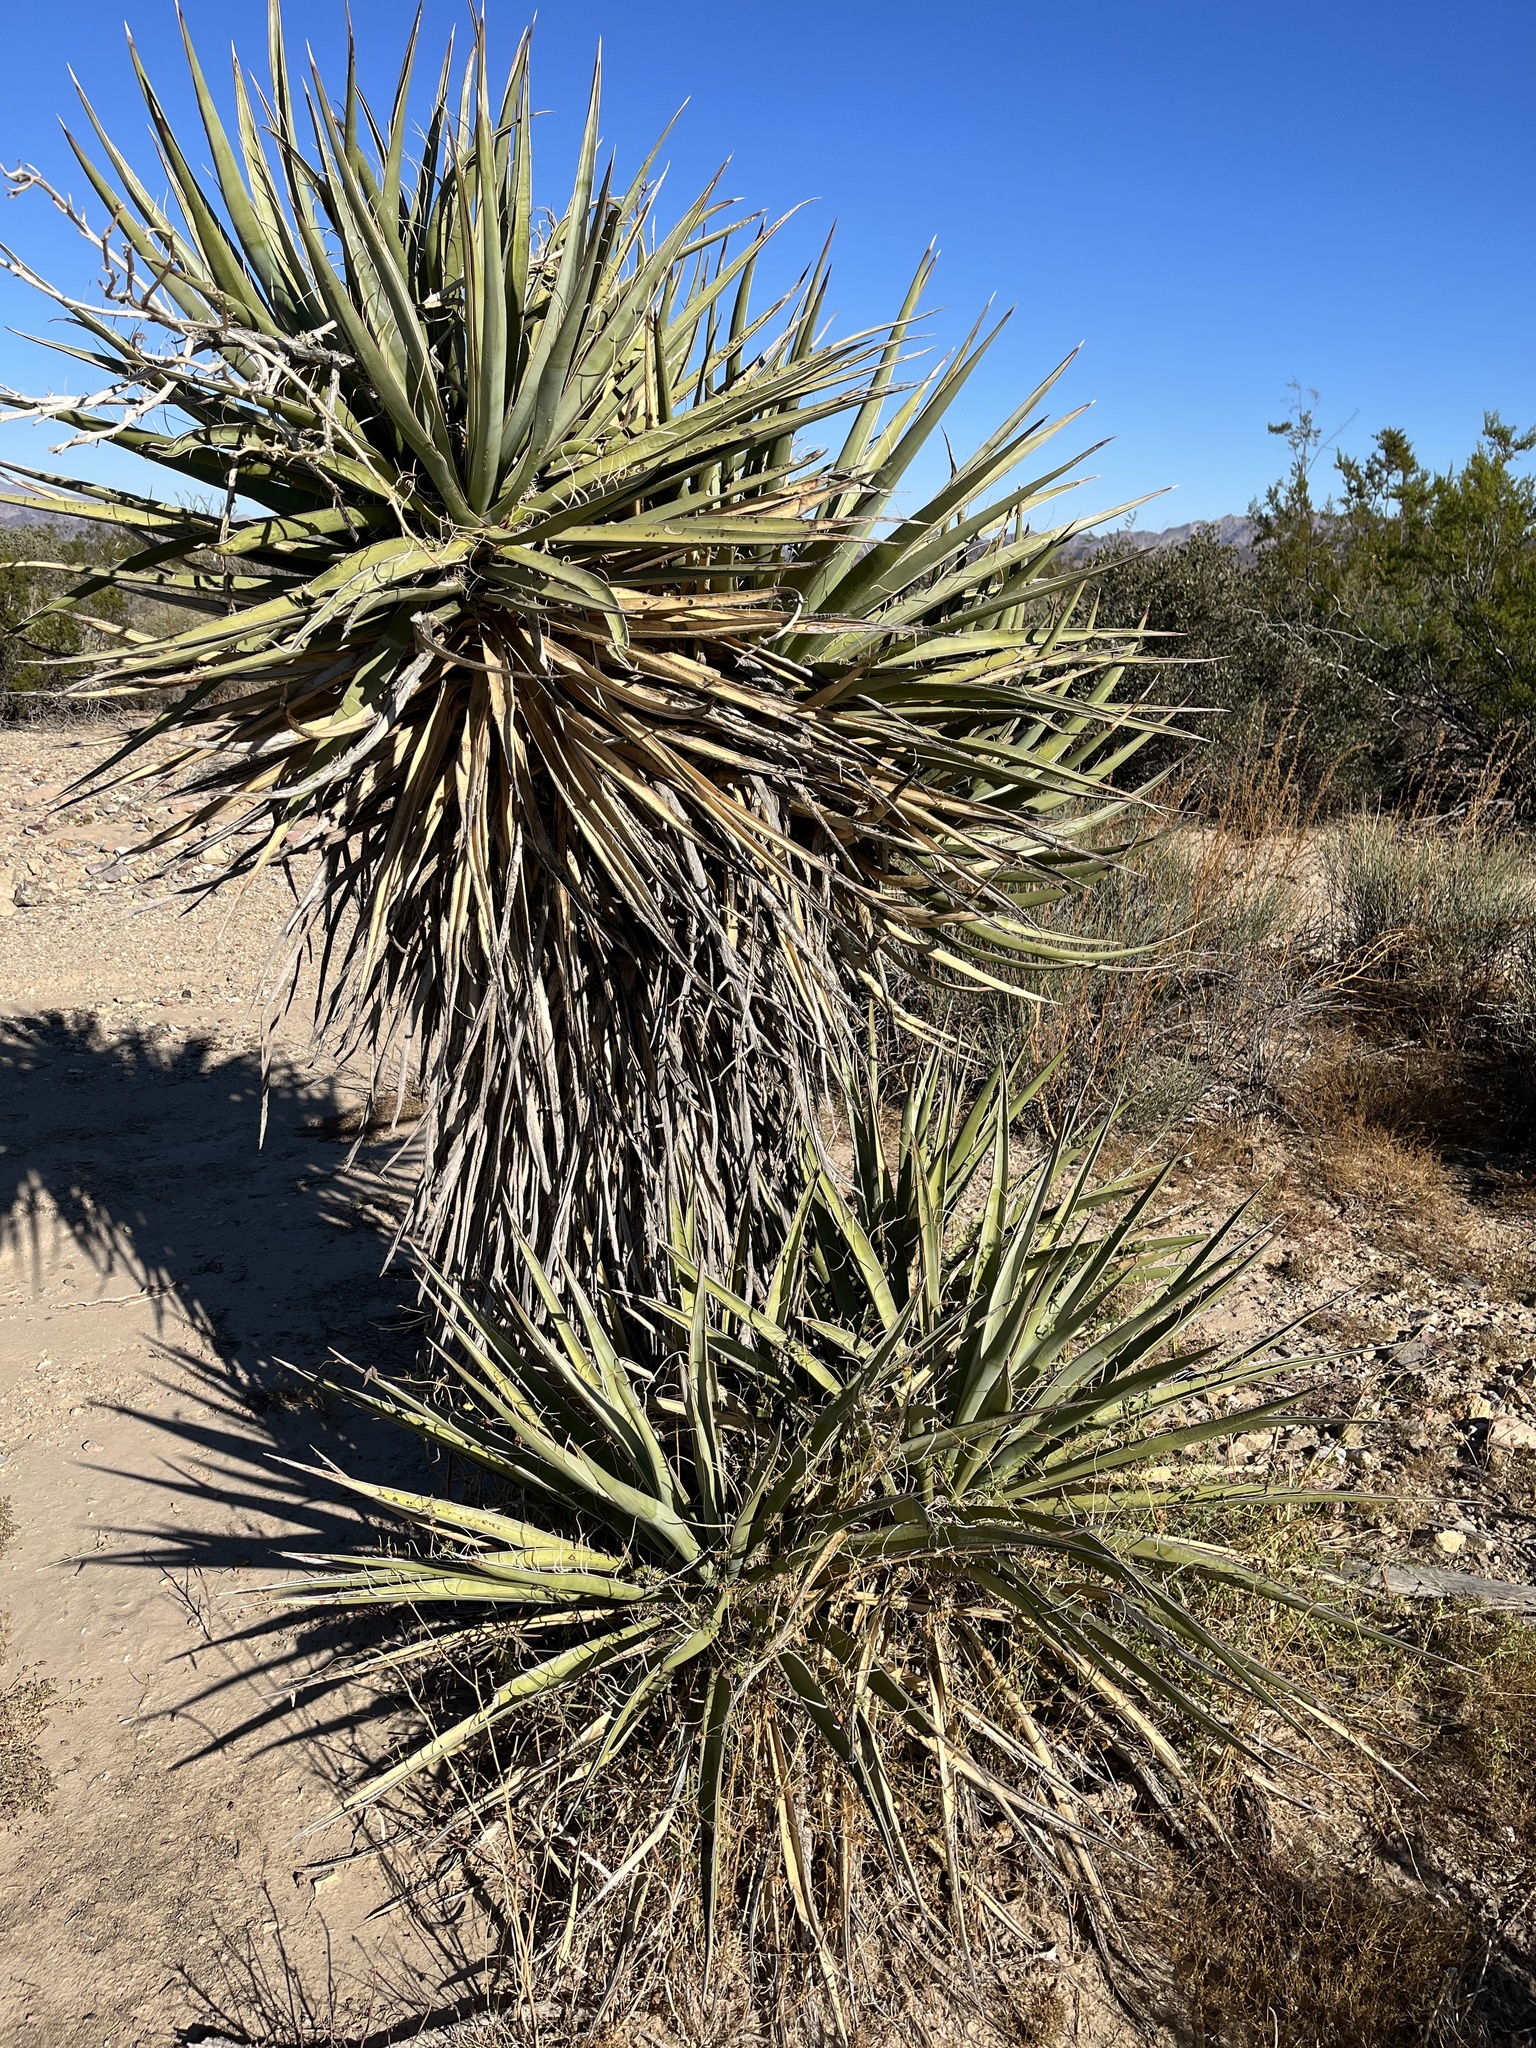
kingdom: Plantae
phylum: Tracheophyta
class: Liliopsida
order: Asparagales
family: Asparagaceae
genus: Yucca
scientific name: Yucca schidigera
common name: Mojave yucca
